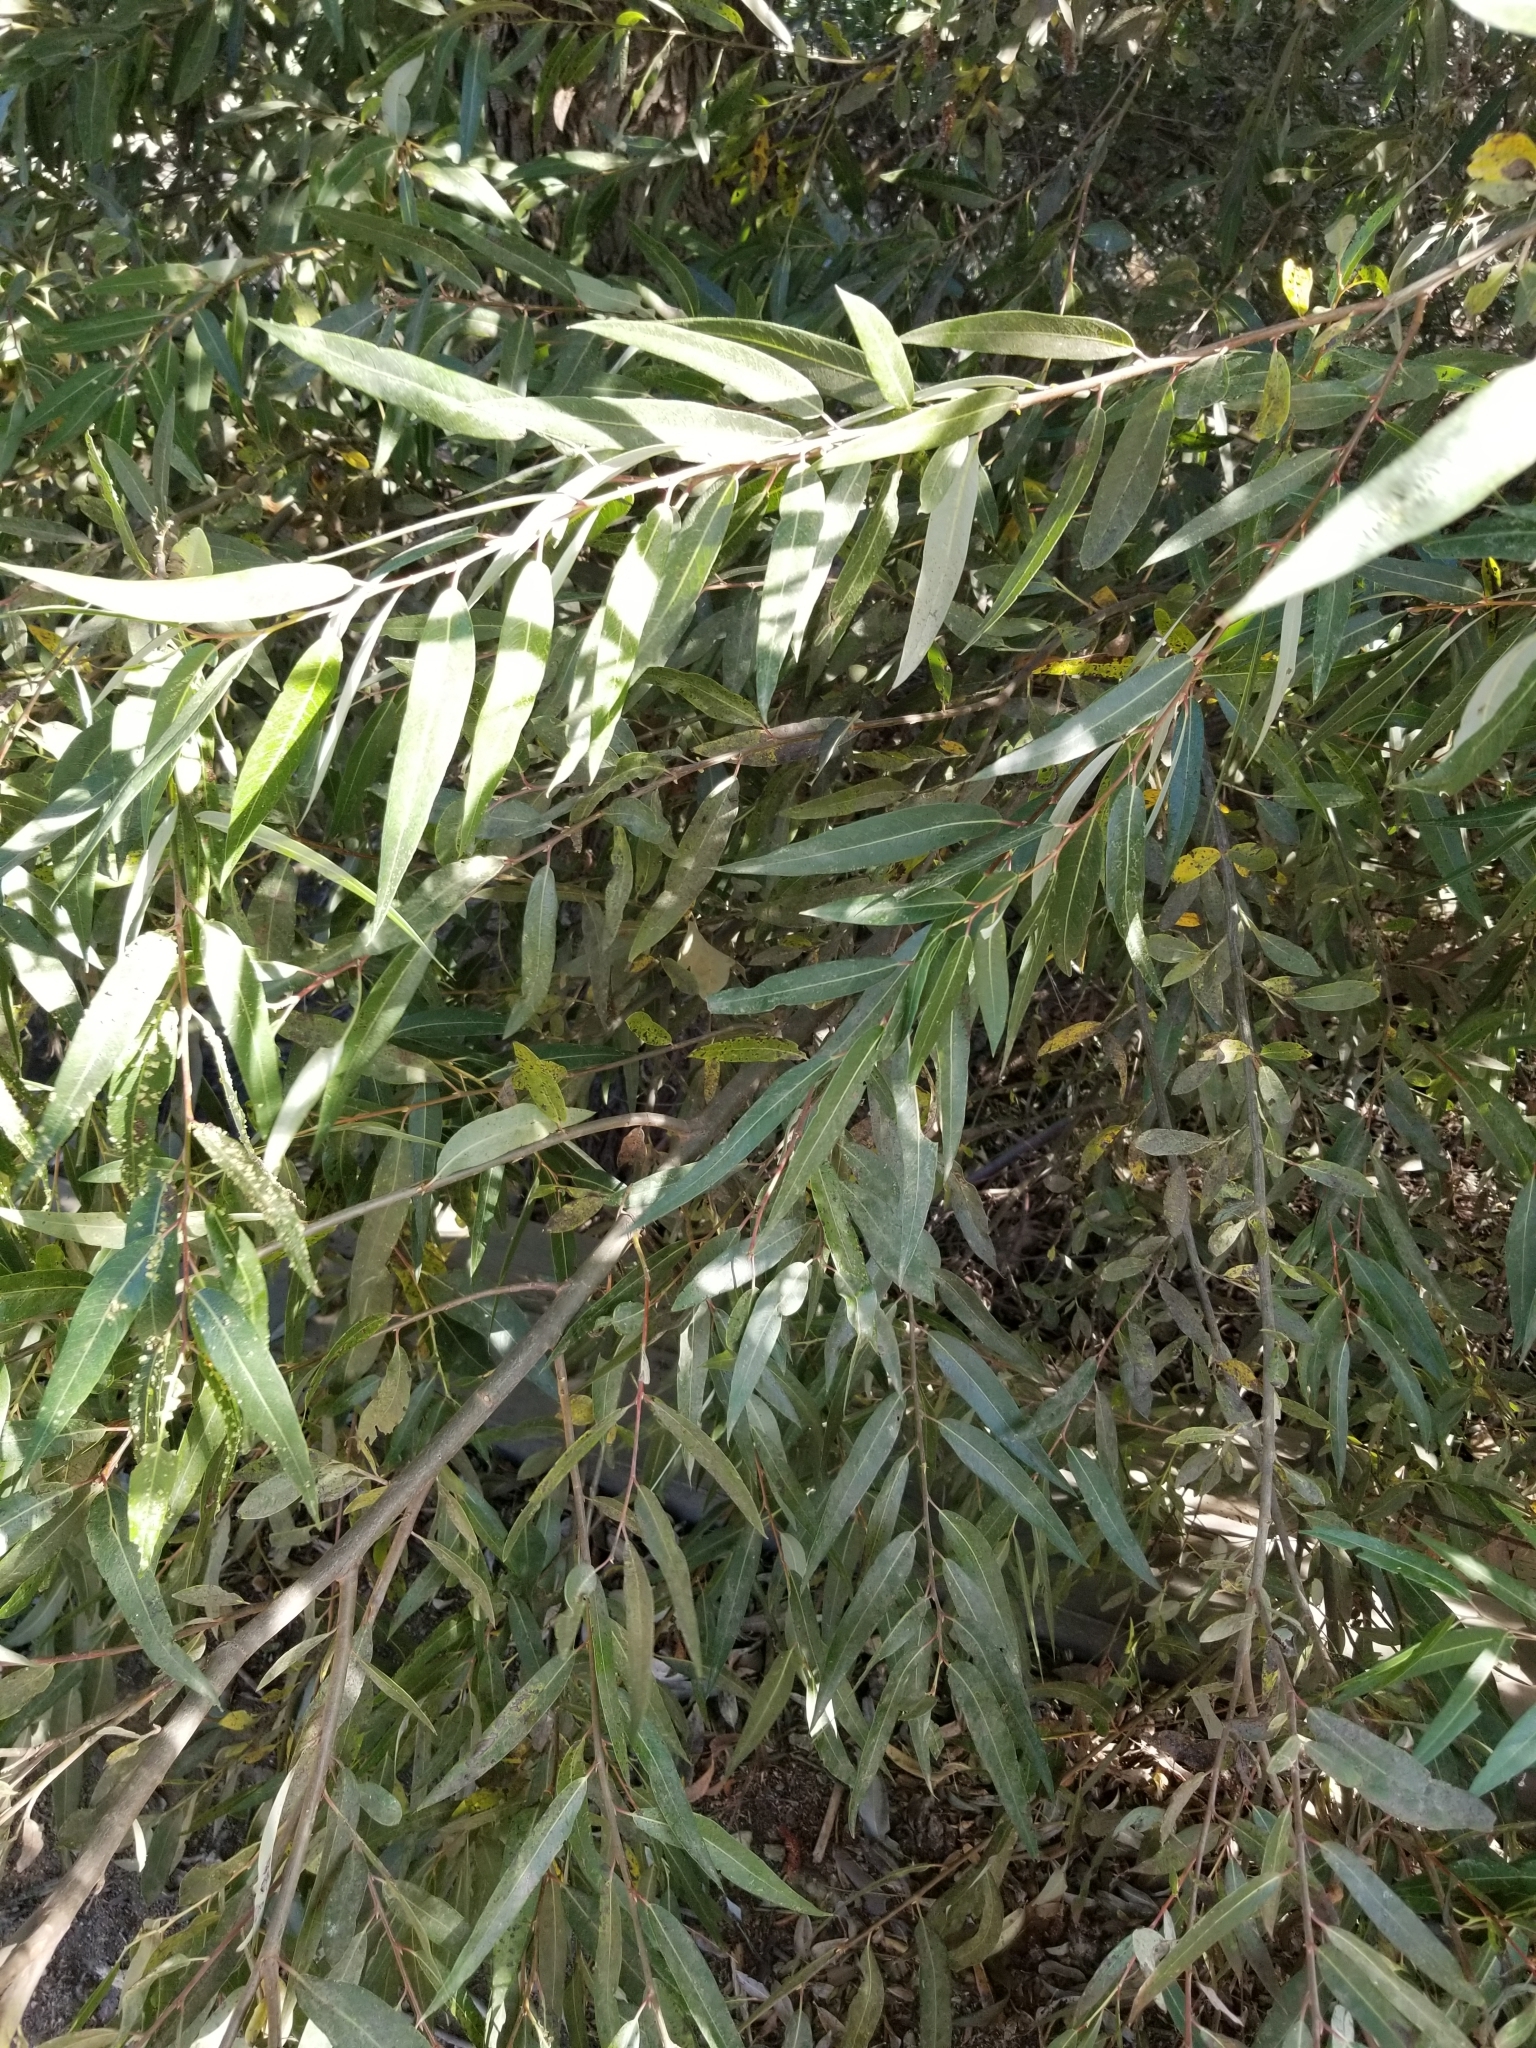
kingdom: Plantae
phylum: Tracheophyta
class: Magnoliopsida
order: Malpighiales
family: Salicaceae
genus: Salix
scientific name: Salix laevigata
